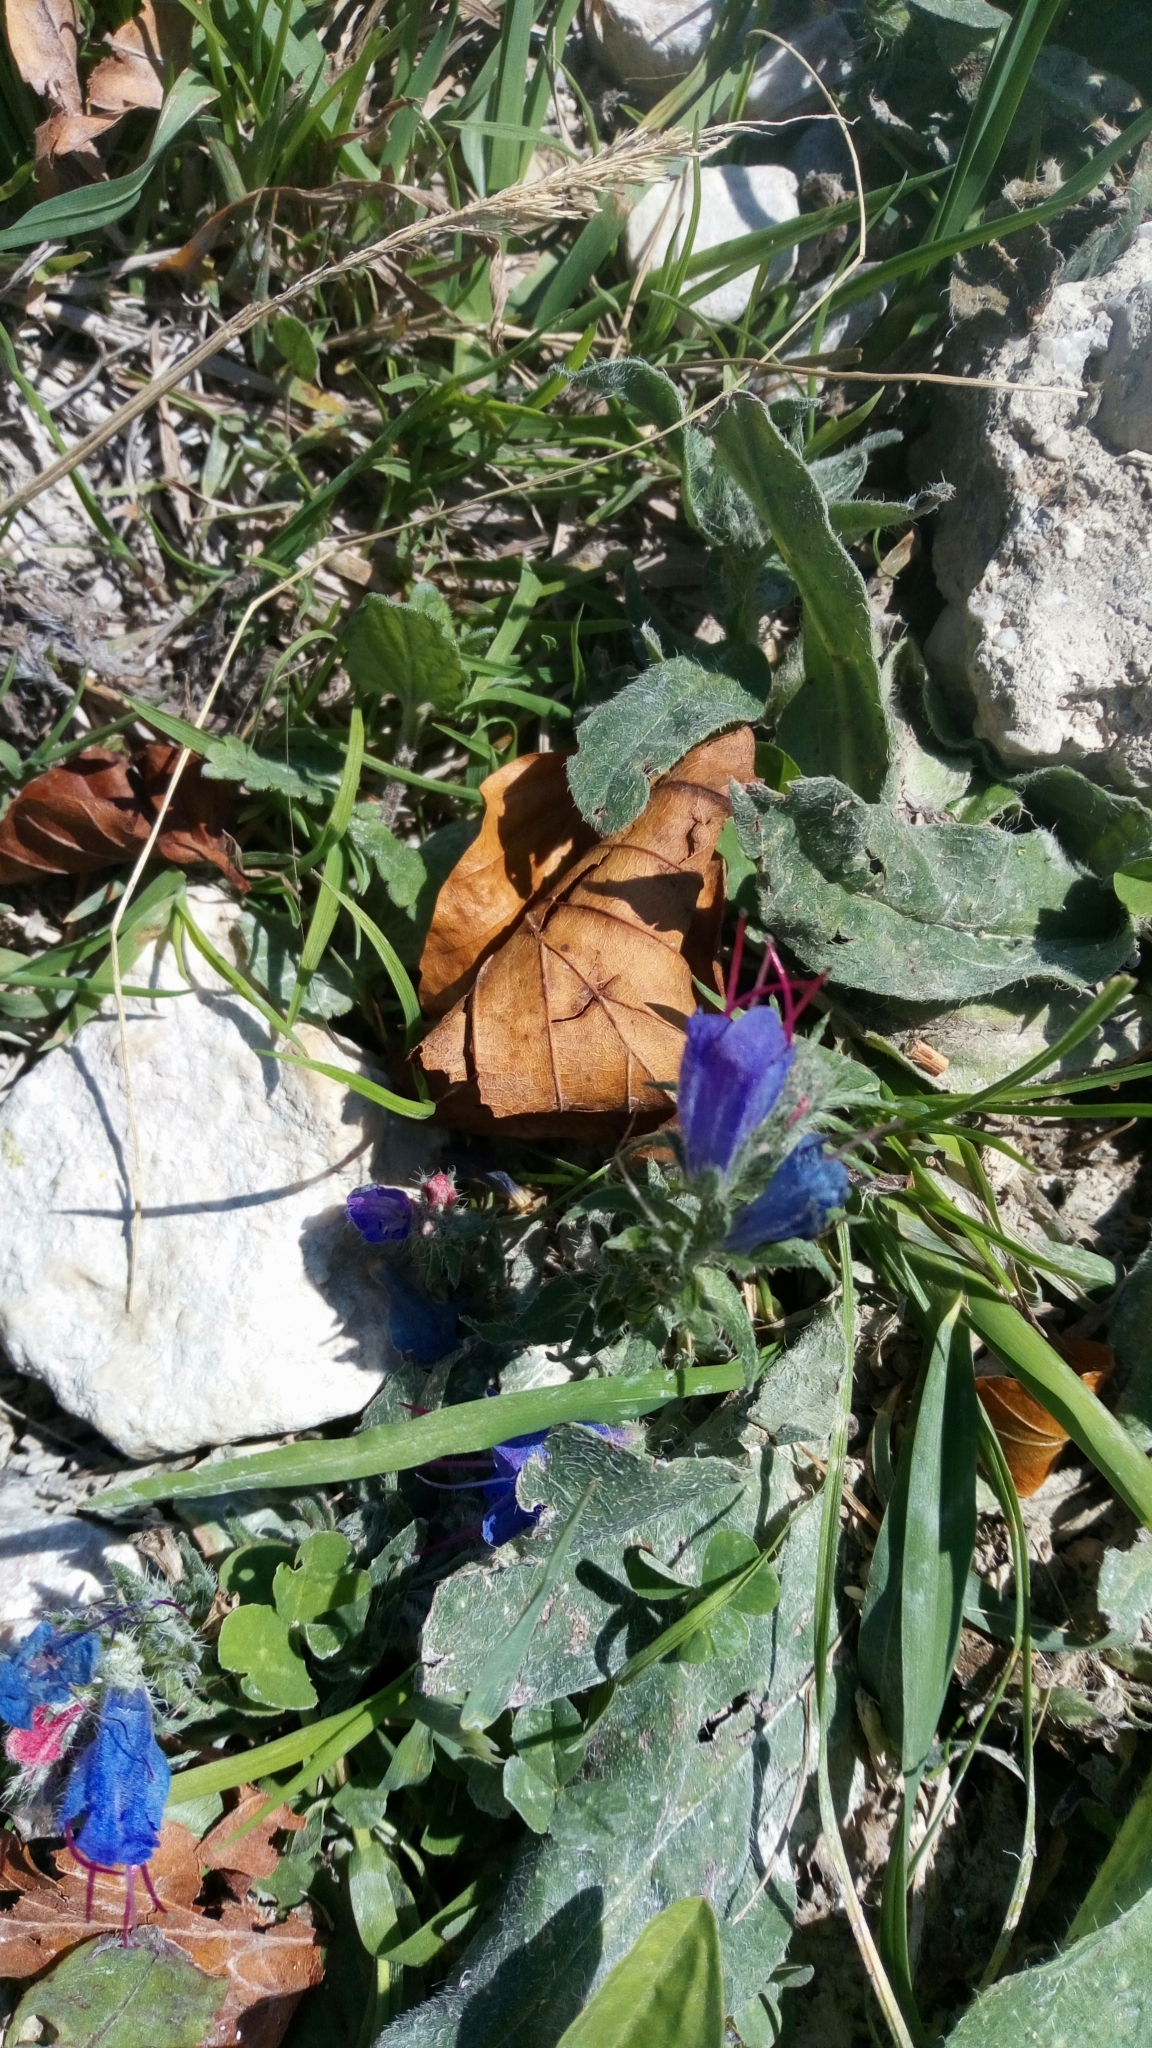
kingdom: Plantae
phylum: Tracheophyta
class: Magnoliopsida
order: Boraginales
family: Boraginaceae
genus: Echium
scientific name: Echium vulgare
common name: Common viper's bugloss
